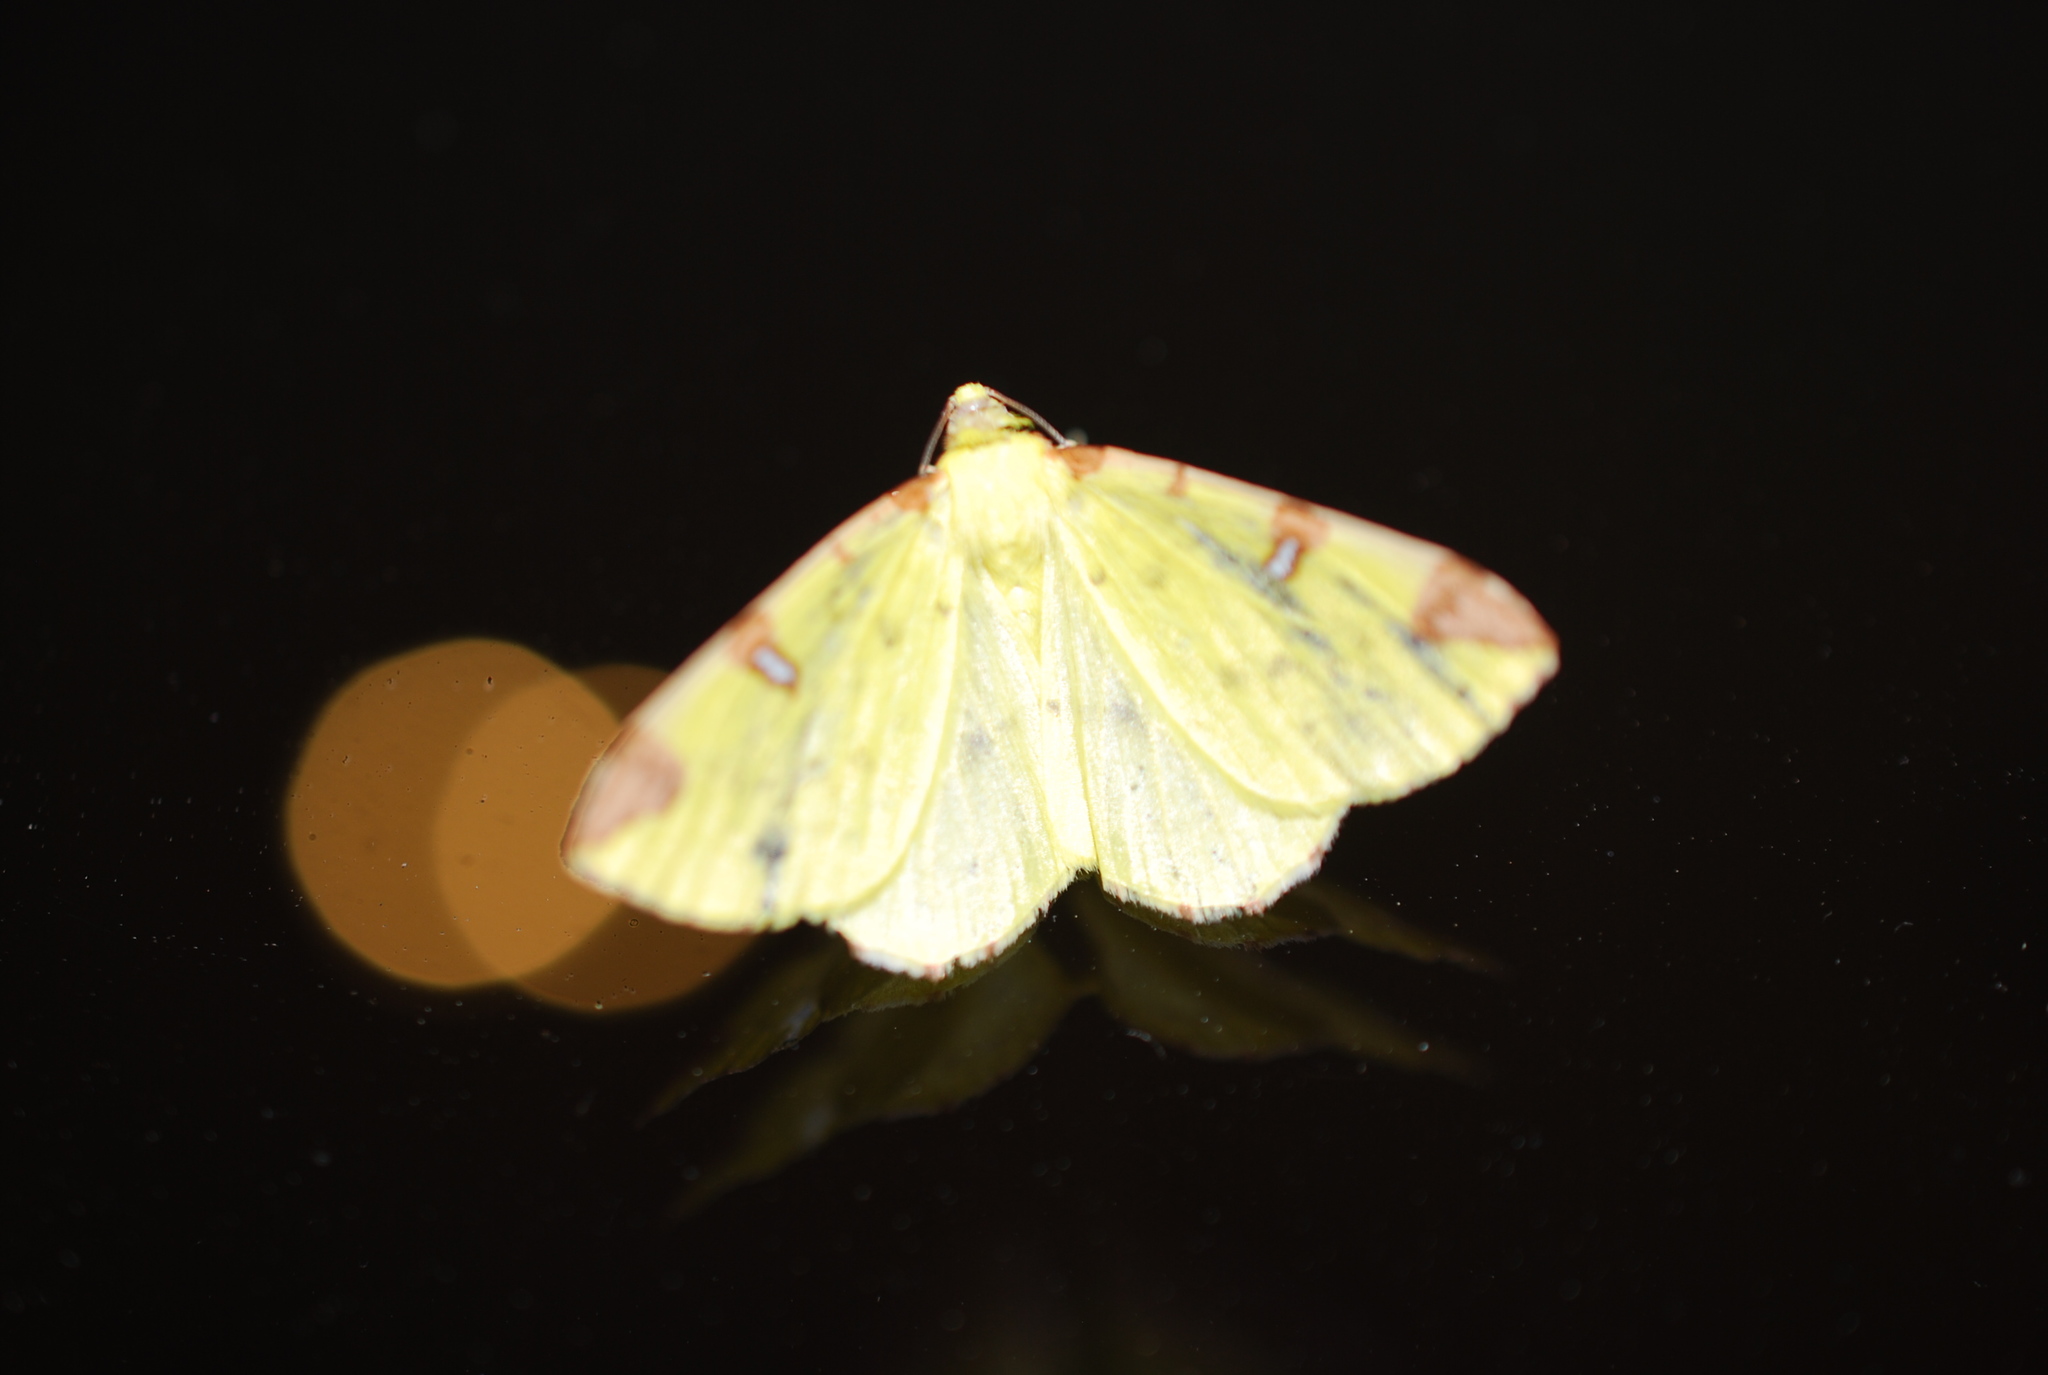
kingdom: Animalia
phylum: Arthropoda
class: Insecta
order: Lepidoptera
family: Geometridae
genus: Opisthograptis
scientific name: Opisthograptis luteolata
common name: Brimstone moth
